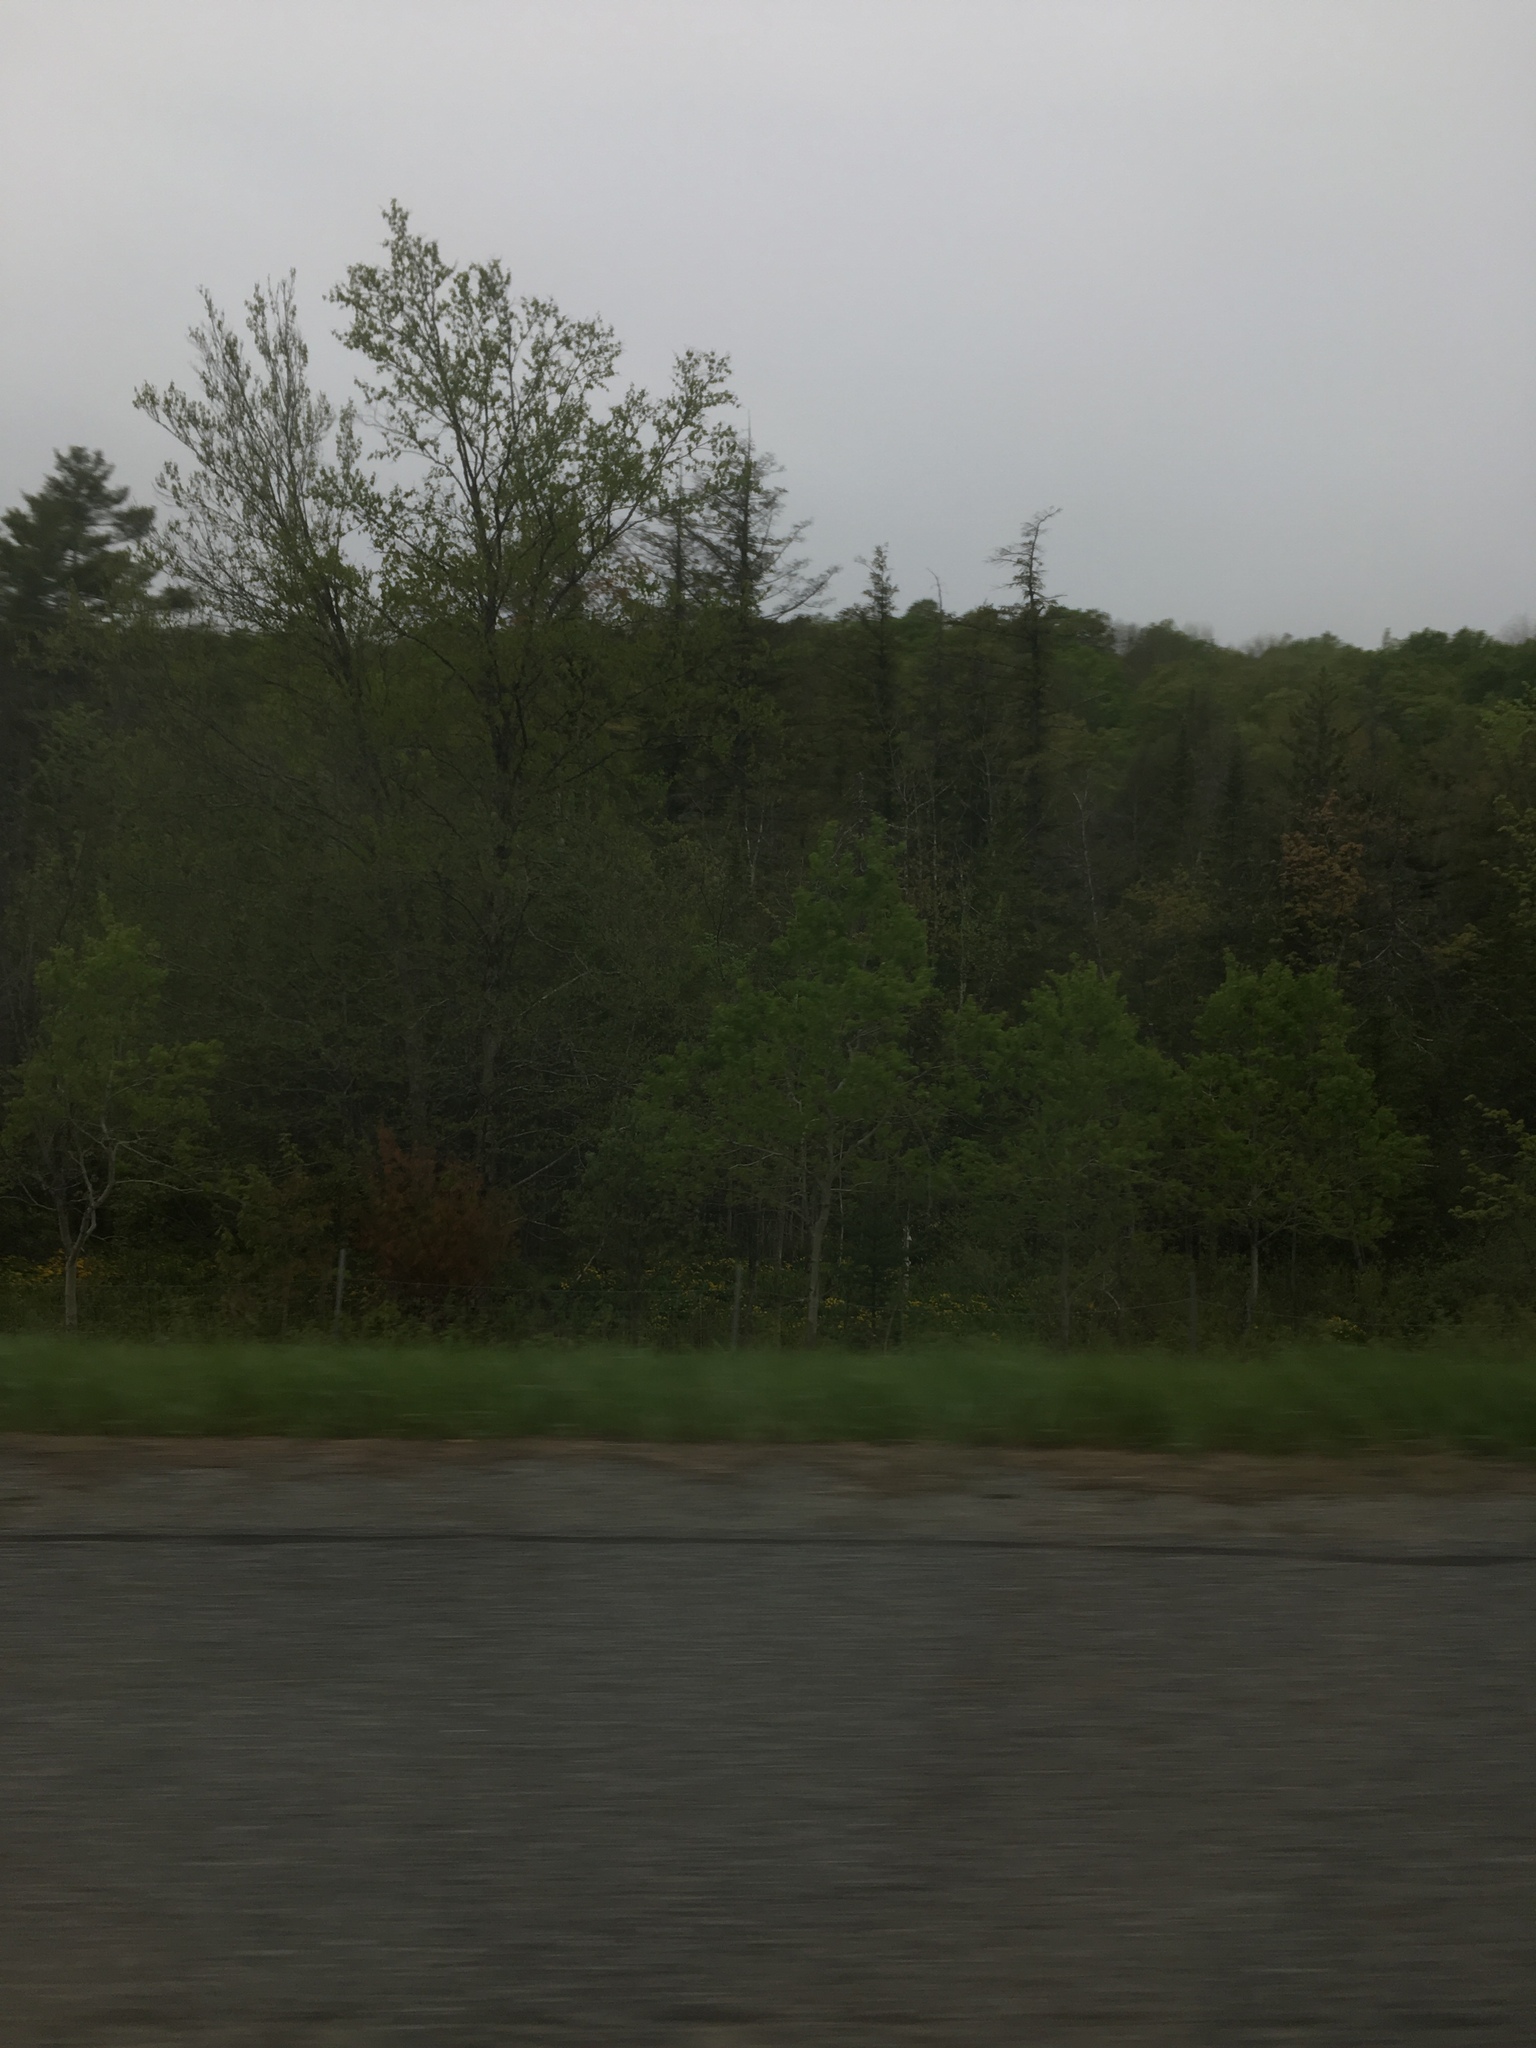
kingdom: Plantae
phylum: Tracheophyta
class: Magnoliopsida
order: Sapindales
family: Sapindaceae
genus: Acer
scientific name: Acer rubrum
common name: Red maple
